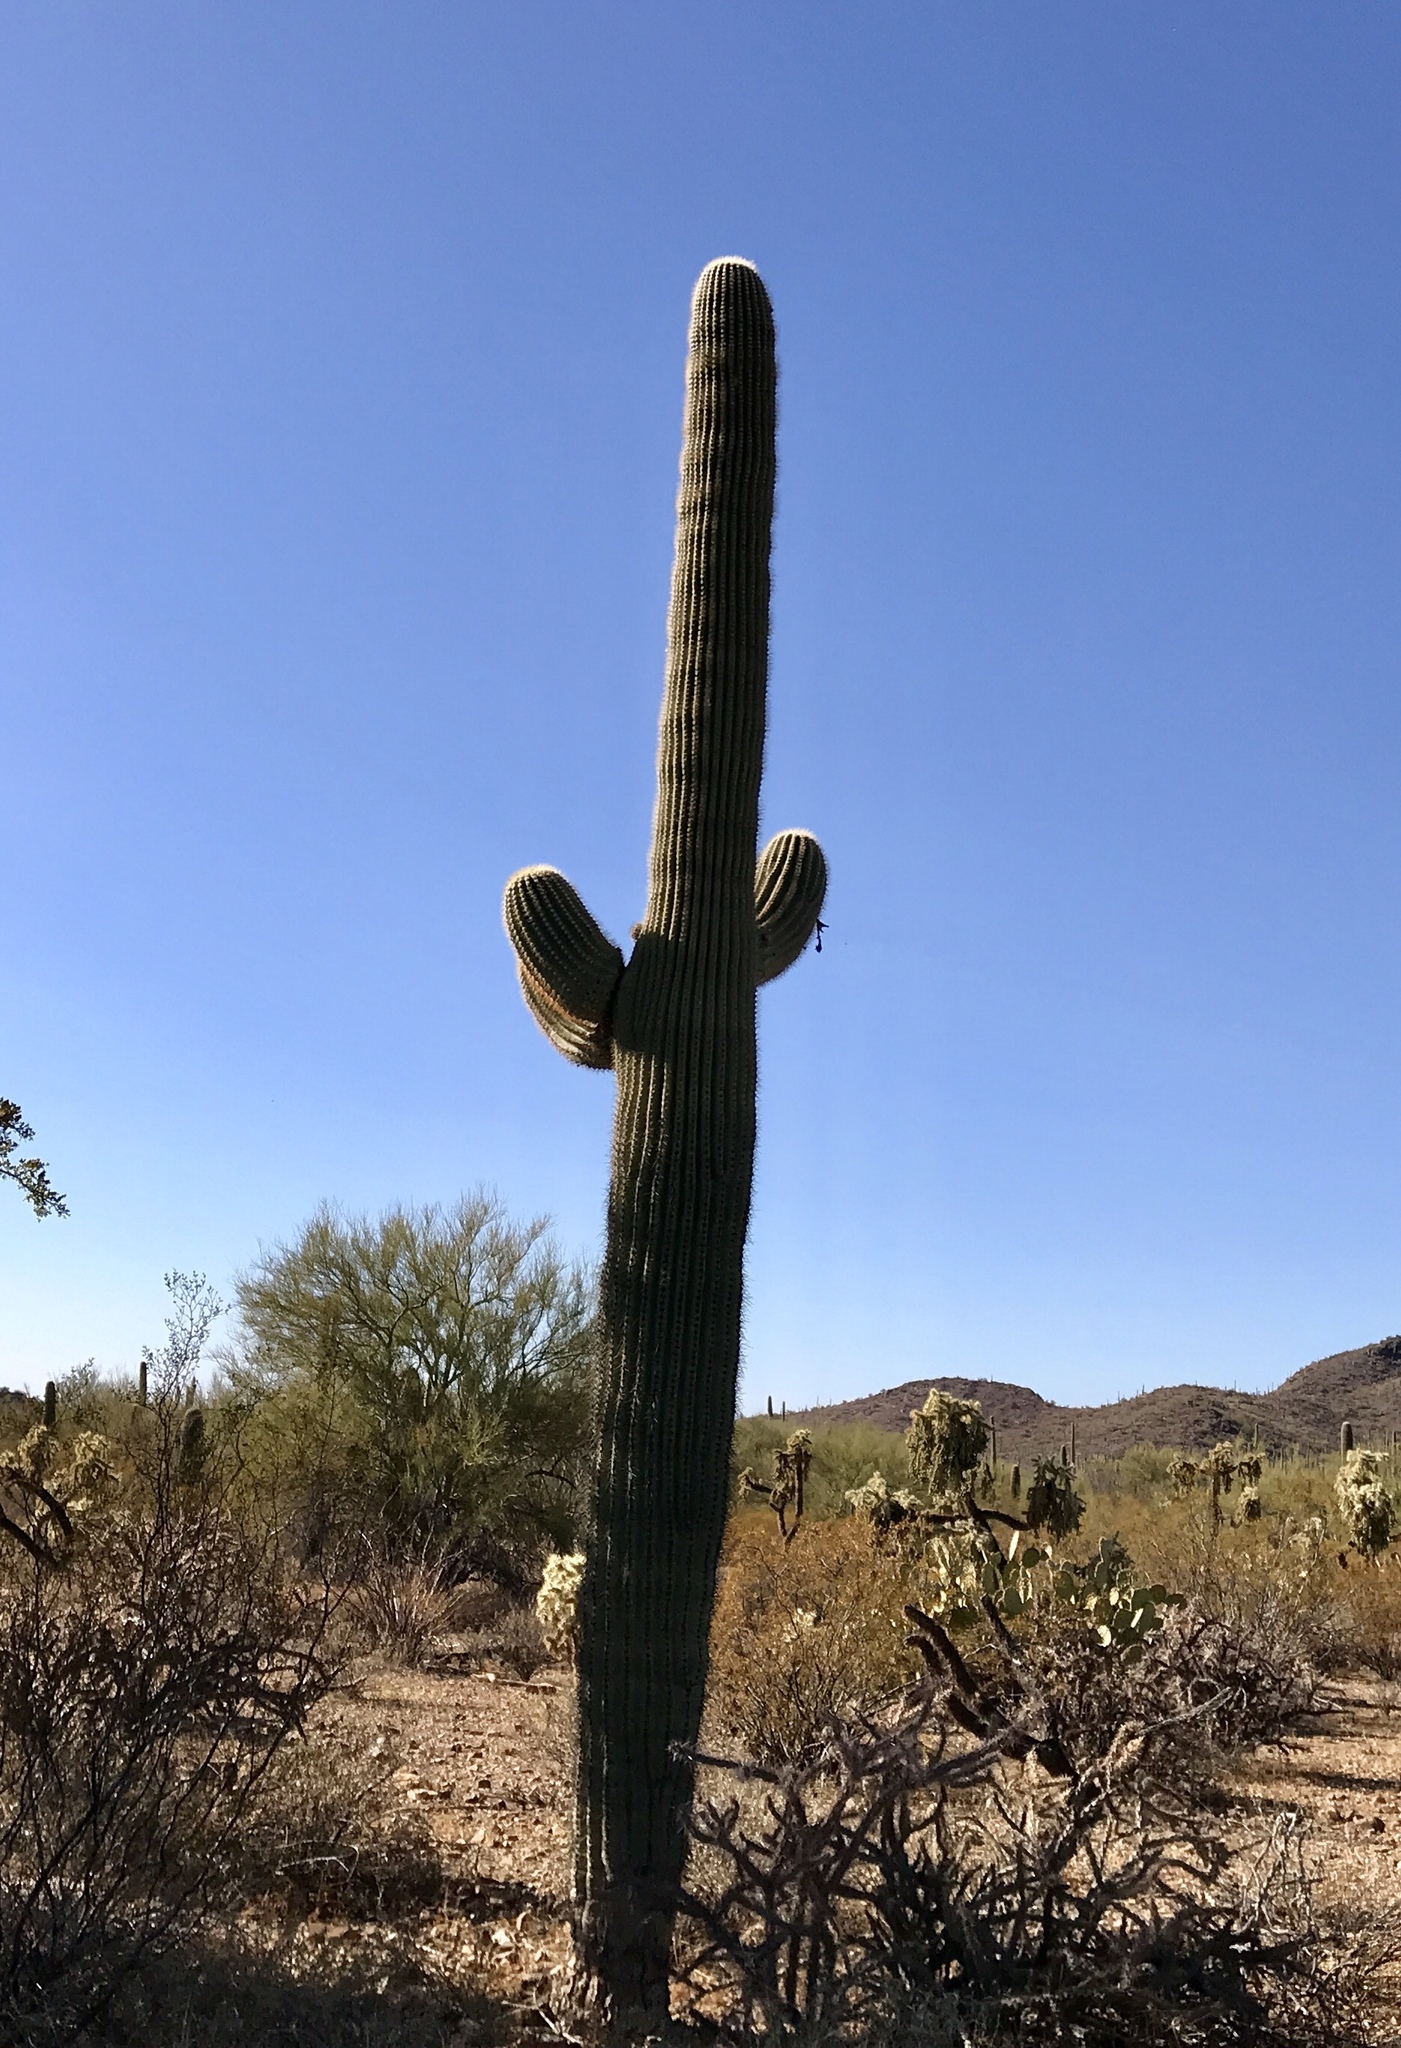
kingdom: Plantae
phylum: Tracheophyta
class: Magnoliopsida
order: Caryophyllales
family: Cactaceae
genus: Carnegiea
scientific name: Carnegiea gigantea
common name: Saguaro
